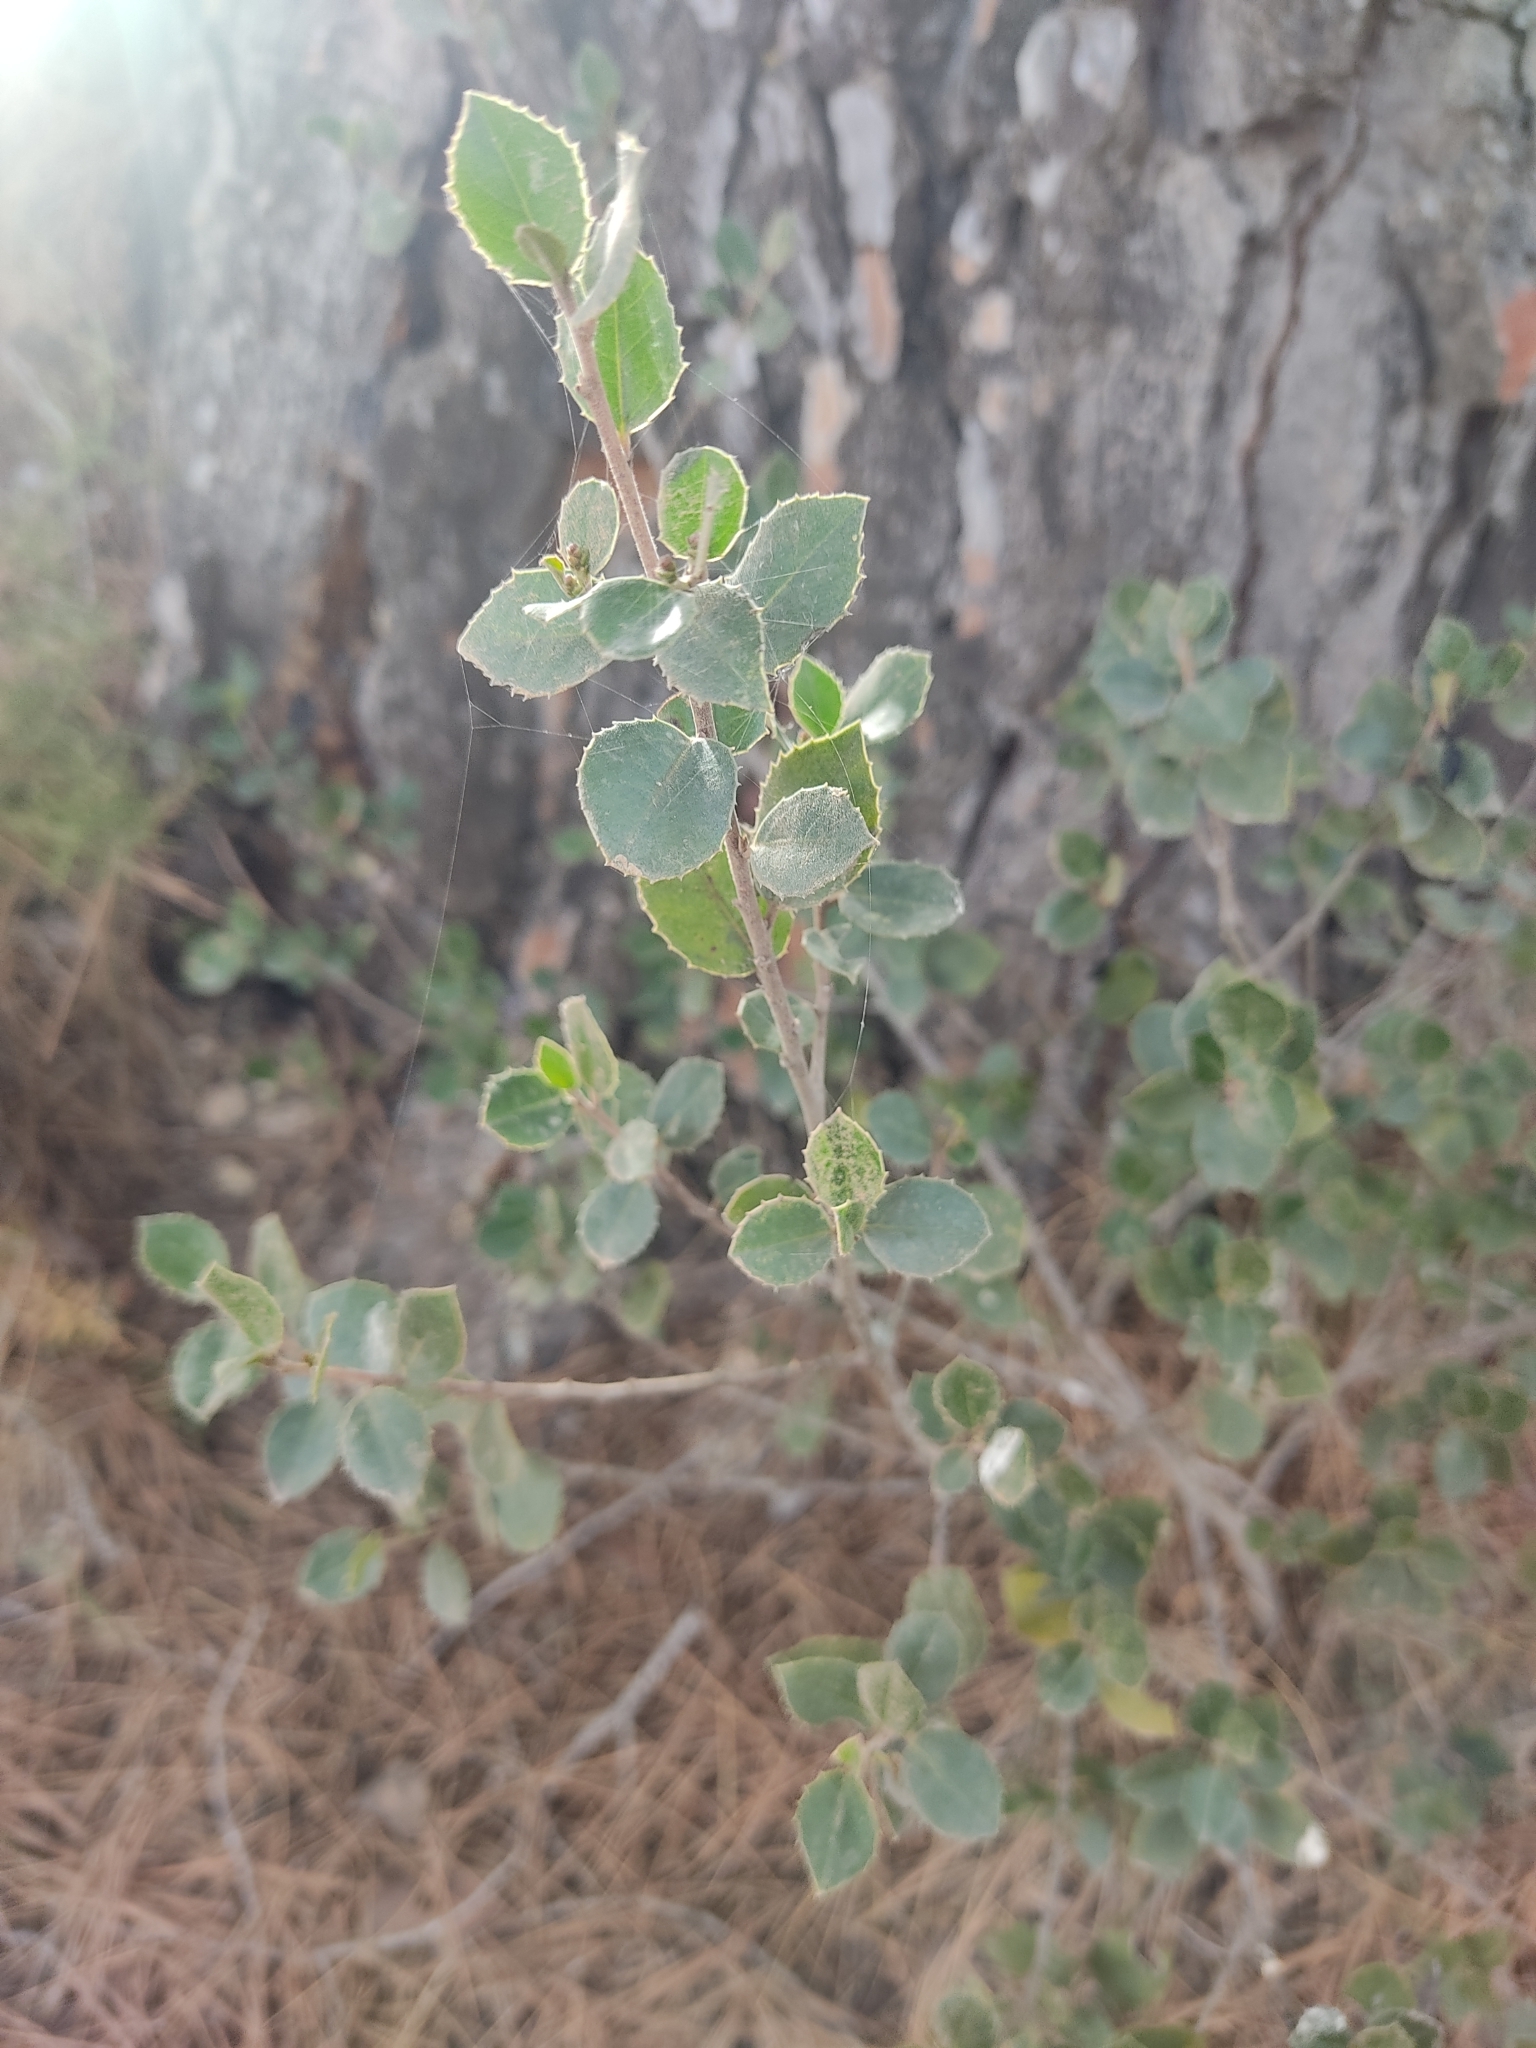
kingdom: Plantae
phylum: Tracheophyta
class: Magnoliopsida
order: Rosales
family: Rhamnaceae
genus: Rhamnus
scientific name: Rhamnus alaternus
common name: Mediterranean buckthorn
